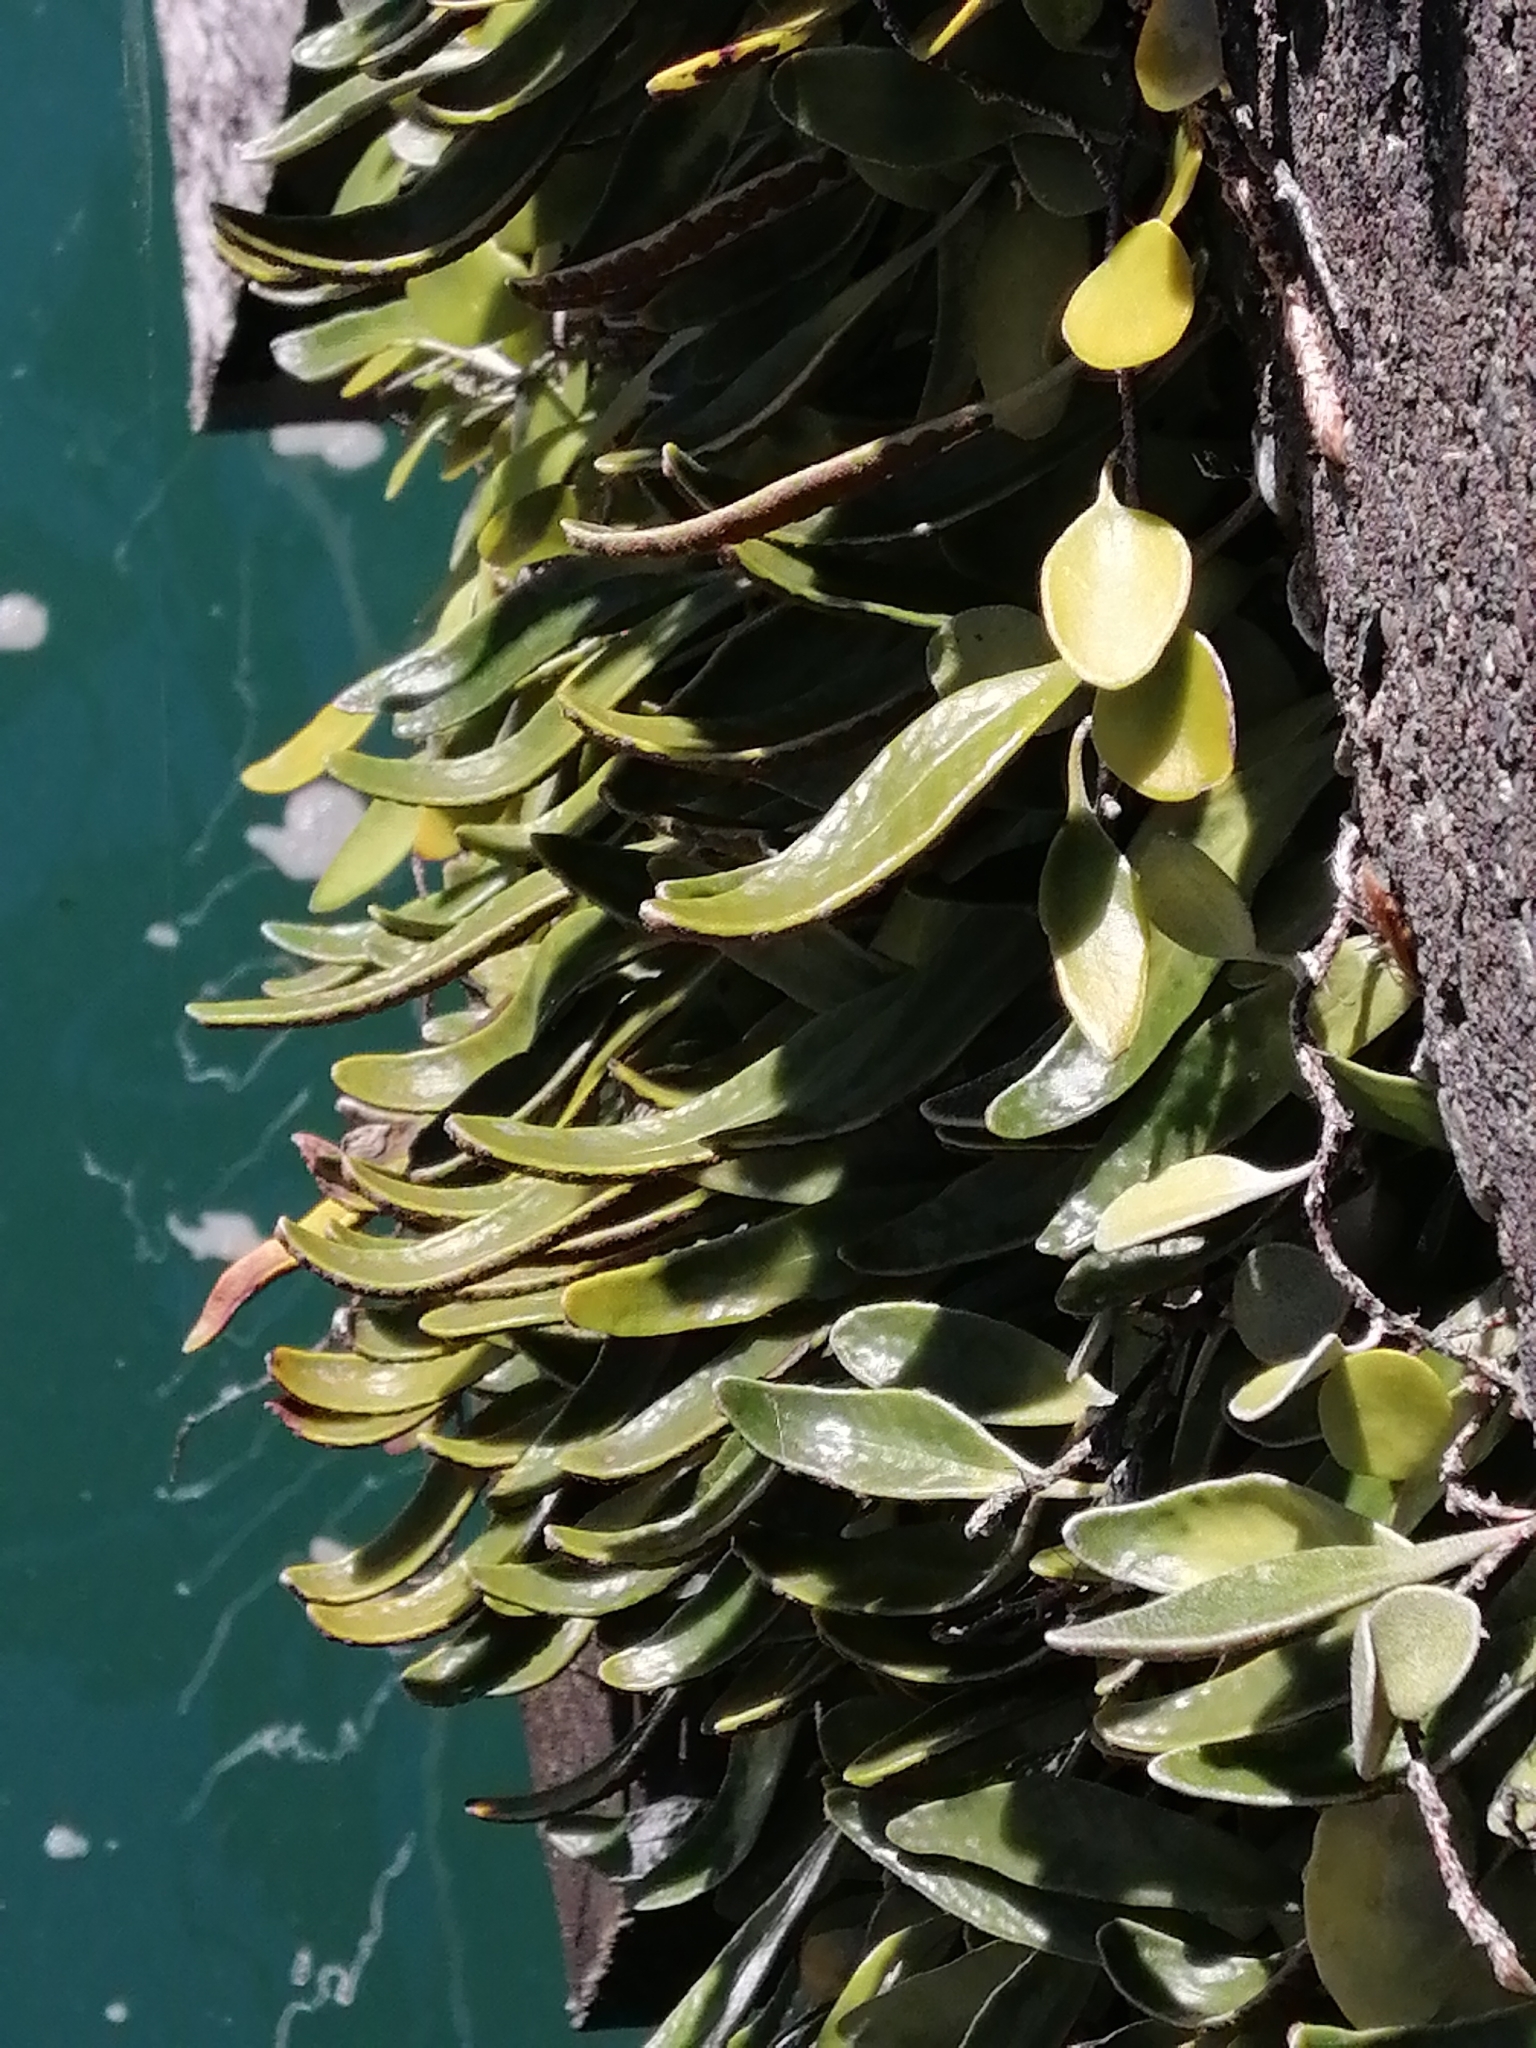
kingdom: Plantae
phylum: Tracheophyta
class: Polypodiopsida
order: Polypodiales
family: Polypodiaceae
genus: Pyrrosia
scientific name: Pyrrosia eleagnifolia
